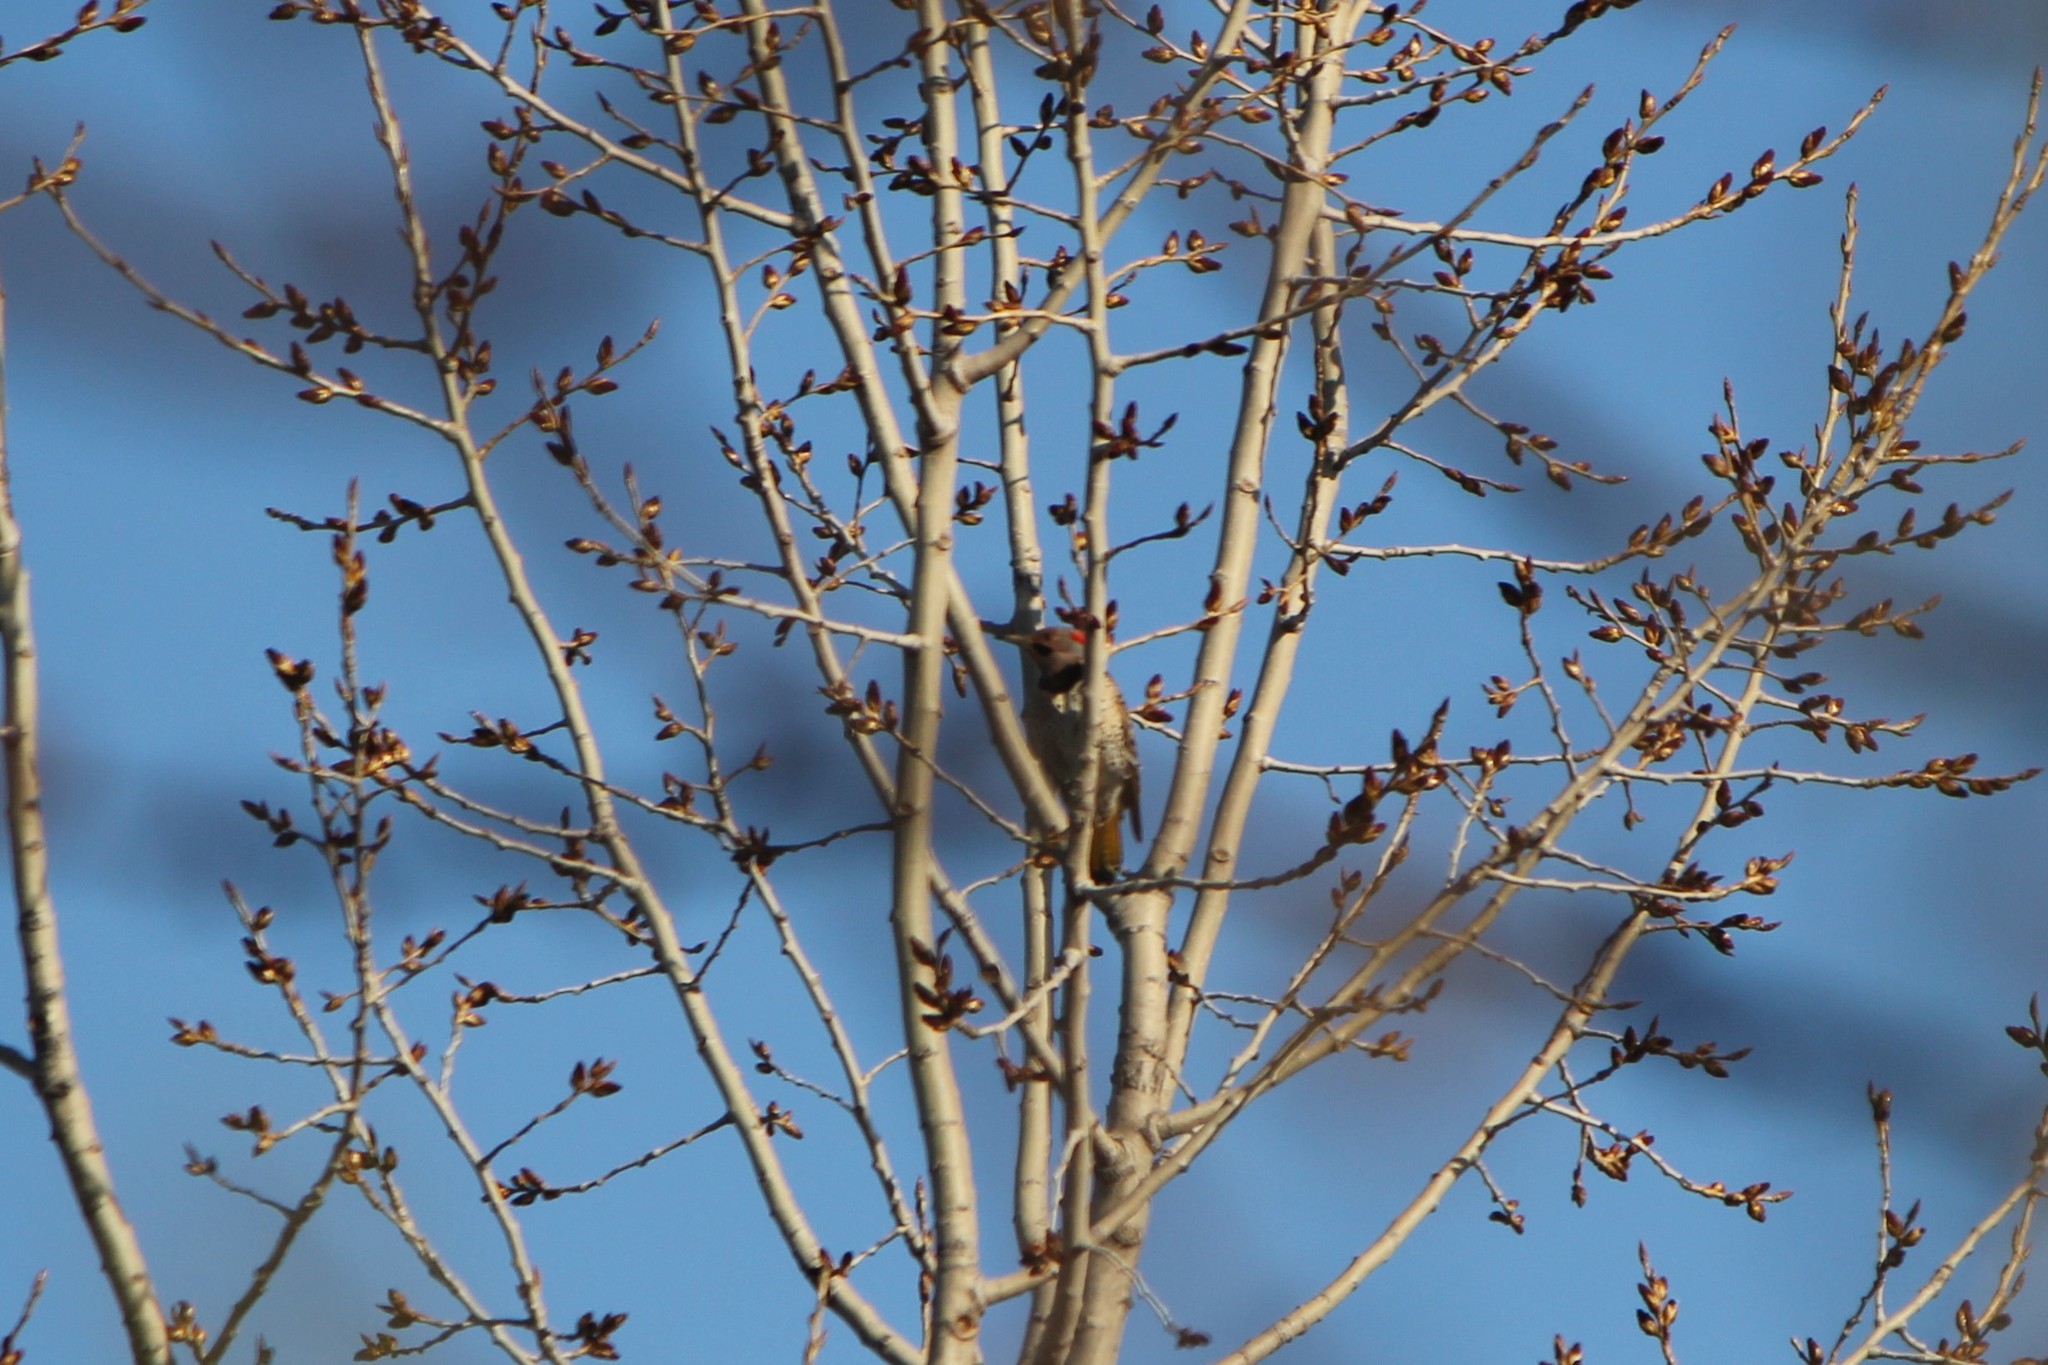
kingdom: Animalia
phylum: Chordata
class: Aves
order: Piciformes
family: Picidae
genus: Colaptes
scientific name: Colaptes auratus
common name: Northern flicker
